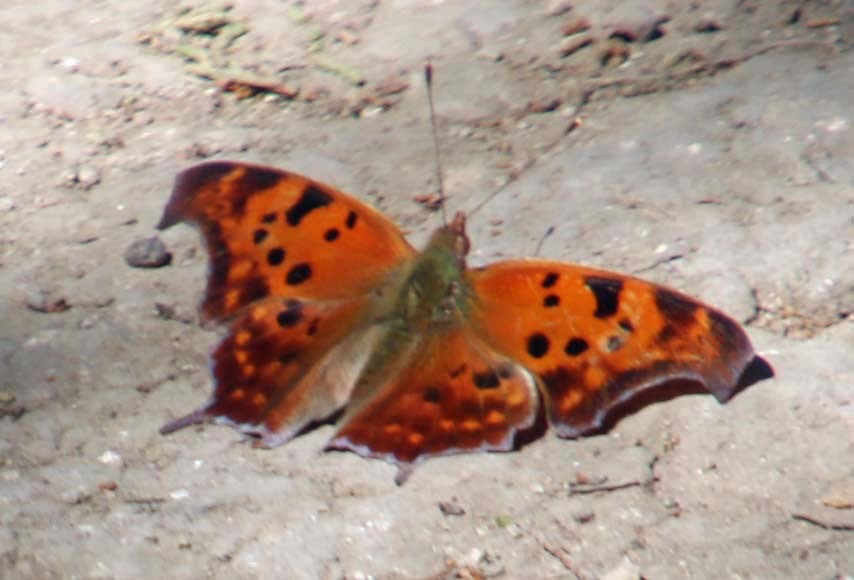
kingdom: Animalia
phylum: Arthropoda
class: Insecta
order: Lepidoptera
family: Nymphalidae
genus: Polygonia
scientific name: Polygonia interrogationis
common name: Question mark
